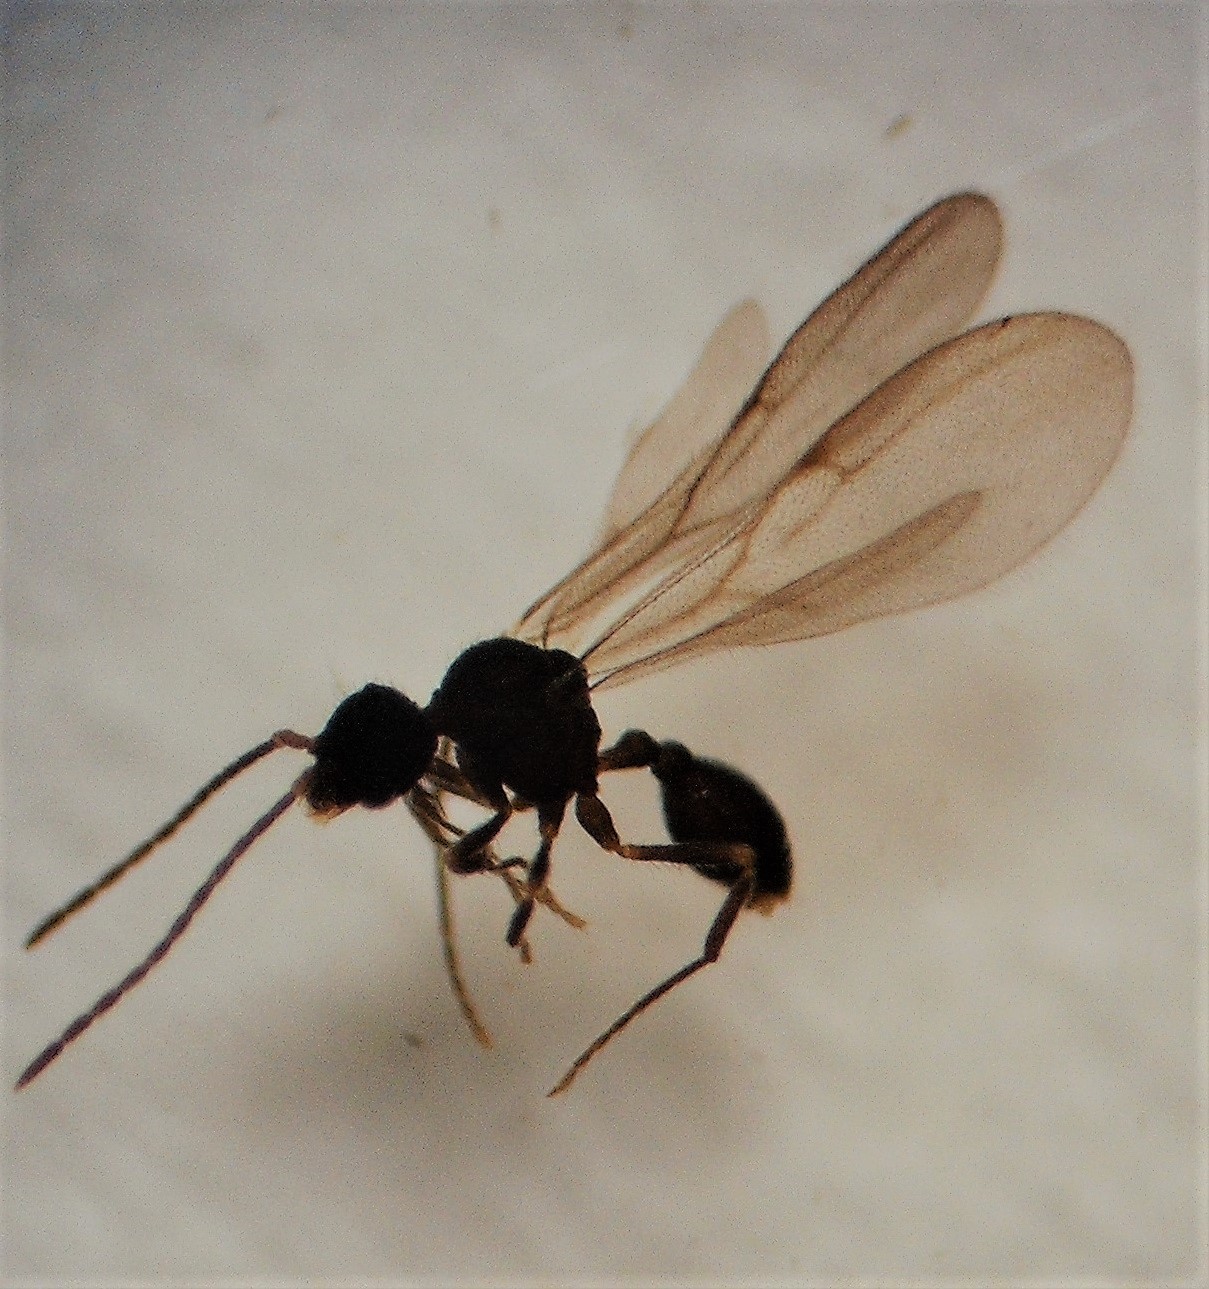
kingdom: Animalia
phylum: Arthropoda
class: Insecta
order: Hymenoptera
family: Formicidae
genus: Strumigenys
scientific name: Strumigenys xenos
